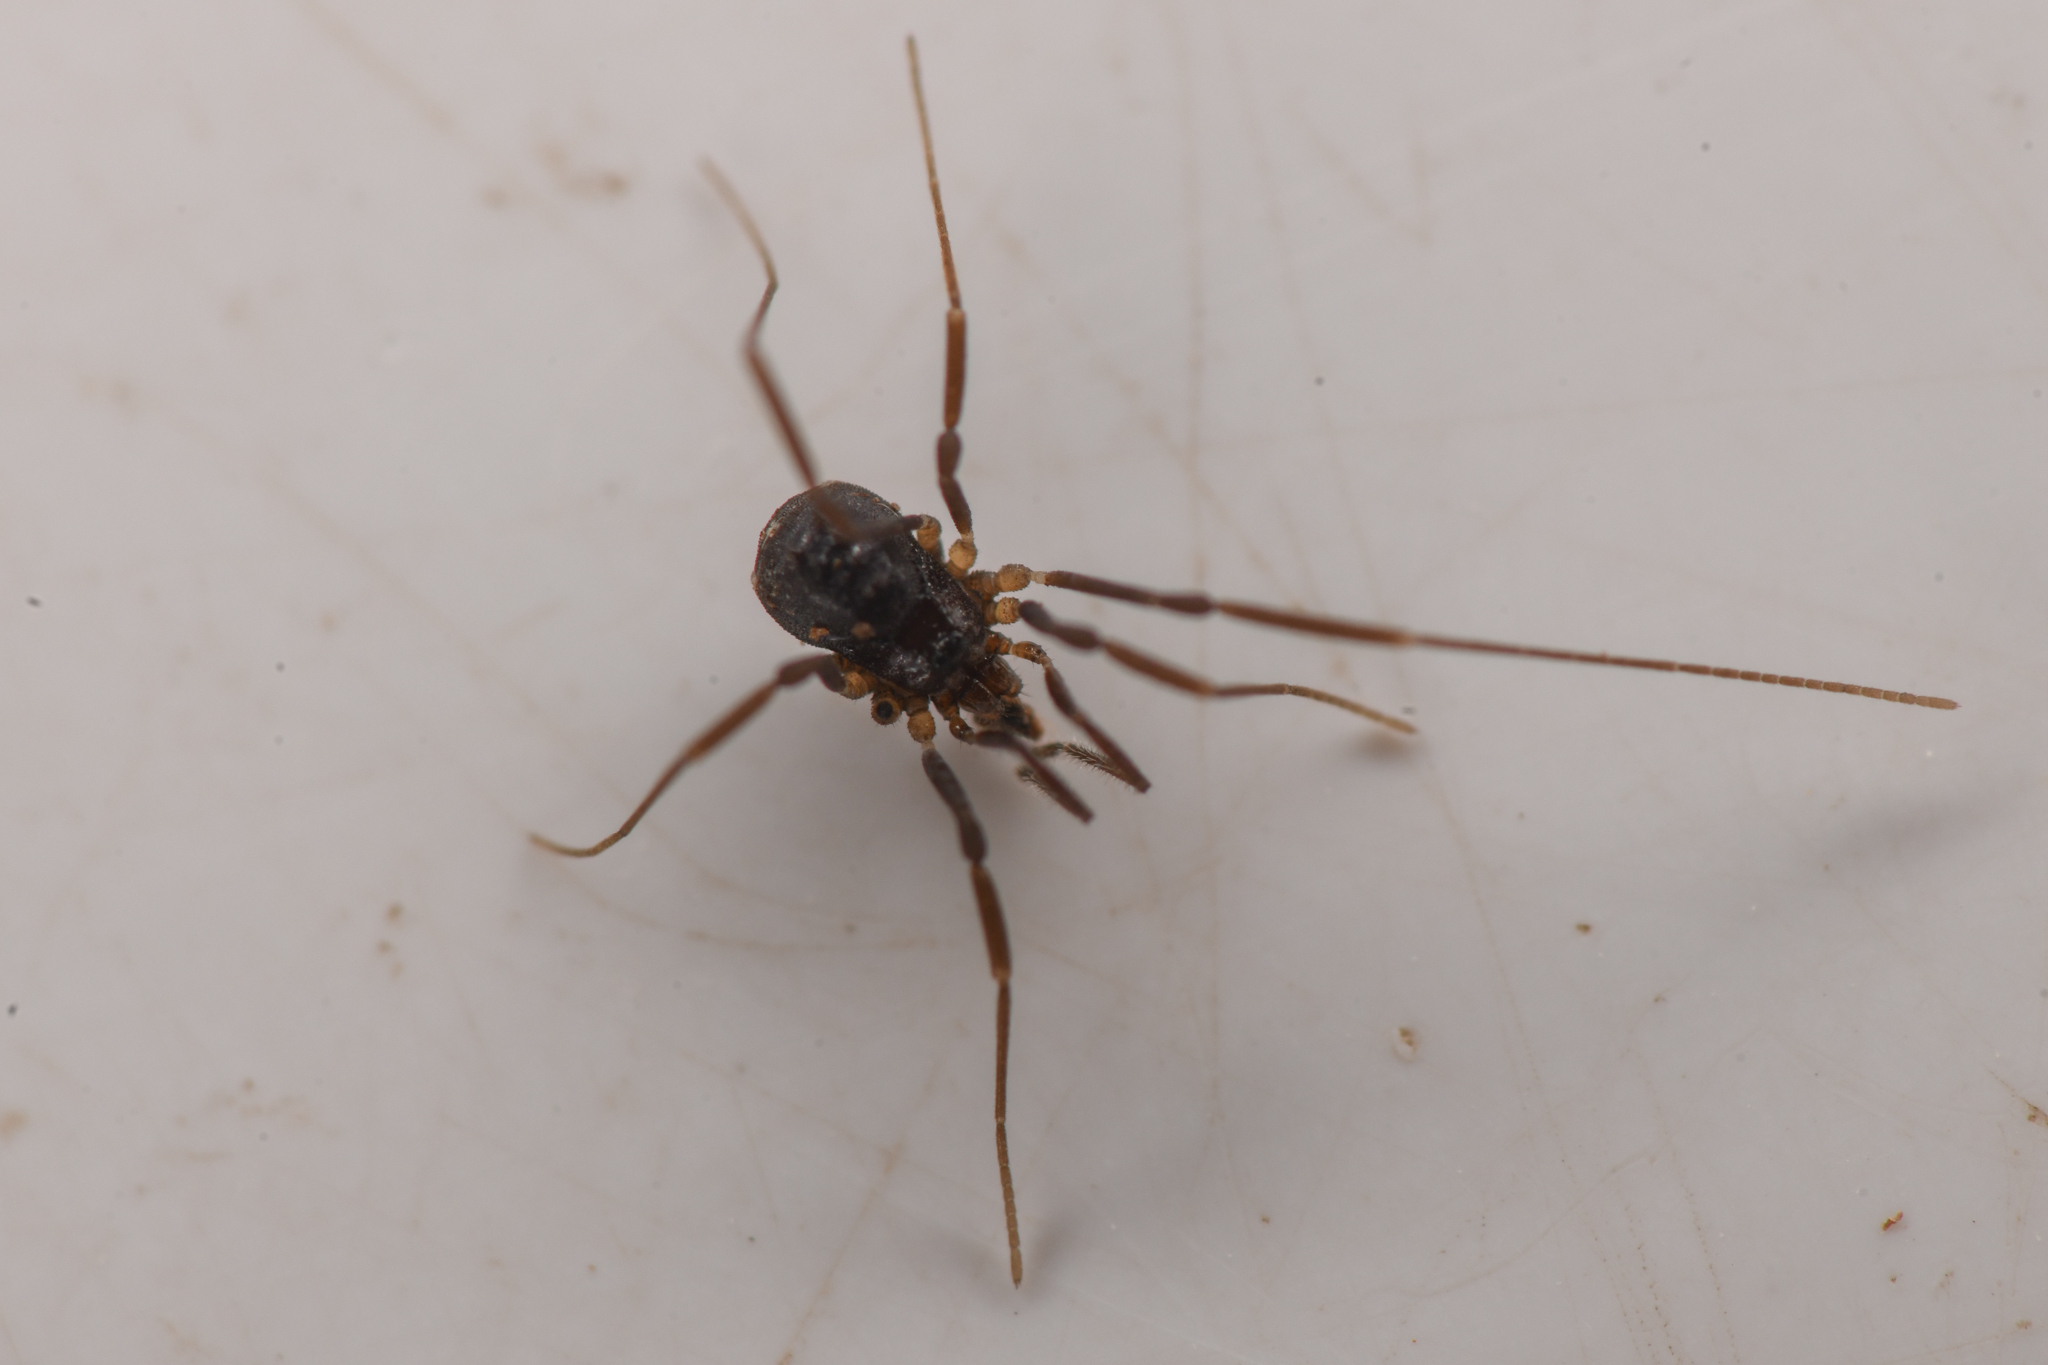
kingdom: Animalia
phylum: Arthropoda
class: Arachnida
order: Opiliones
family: Taracidae
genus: Hesperonemastoma
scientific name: Hesperonemastoma modestum
